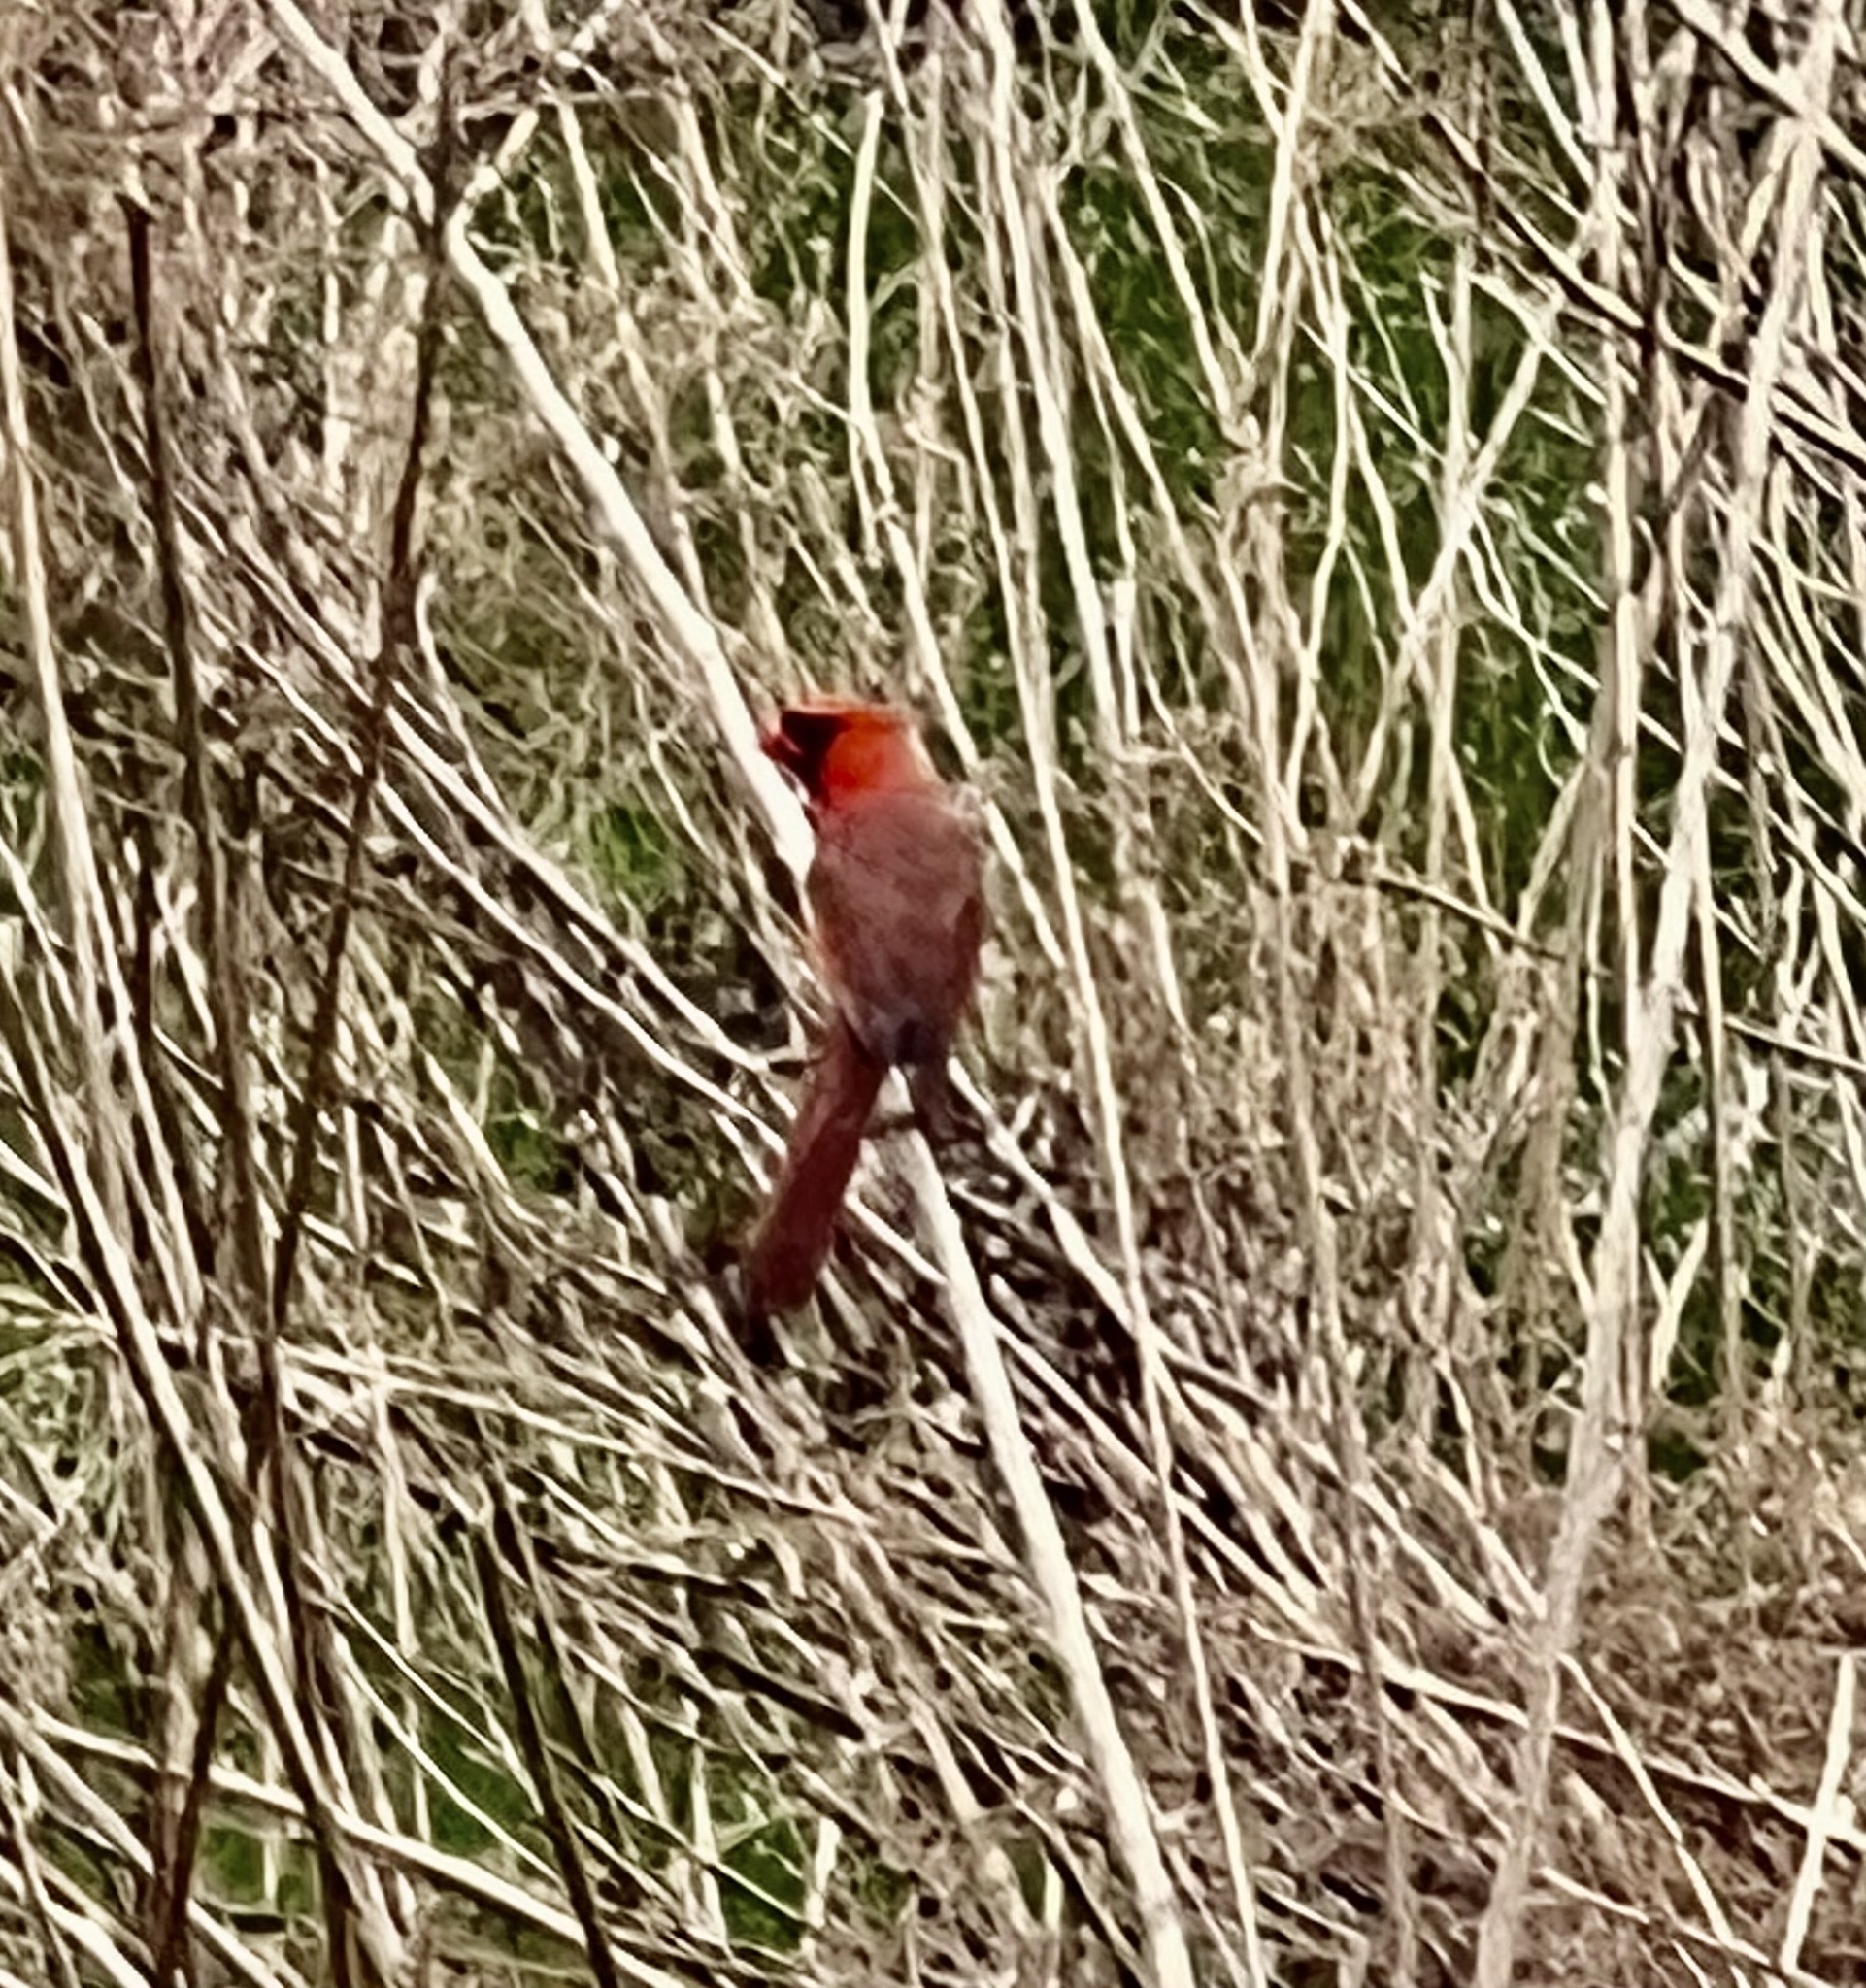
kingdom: Animalia
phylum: Chordata
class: Aves
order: Passeriformes
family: Cardinalidae
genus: Cardinalis
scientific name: Cardinalis cardinalis
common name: Northern cardinal
